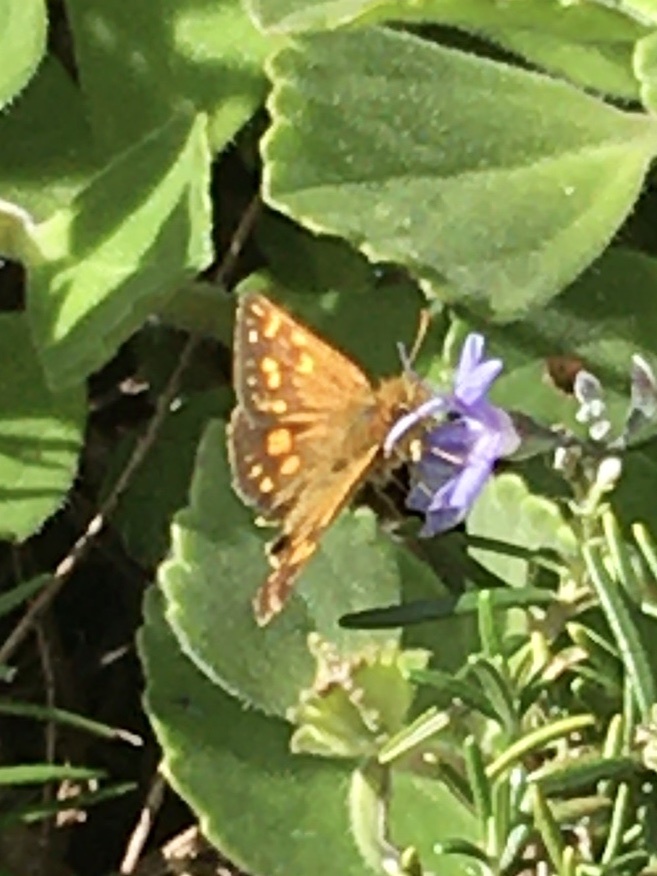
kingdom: Animalia
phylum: Arthropoda
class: Insecta
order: Lepidoptera
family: Hesperiidae
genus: Metisella
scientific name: Metisella malgacha
